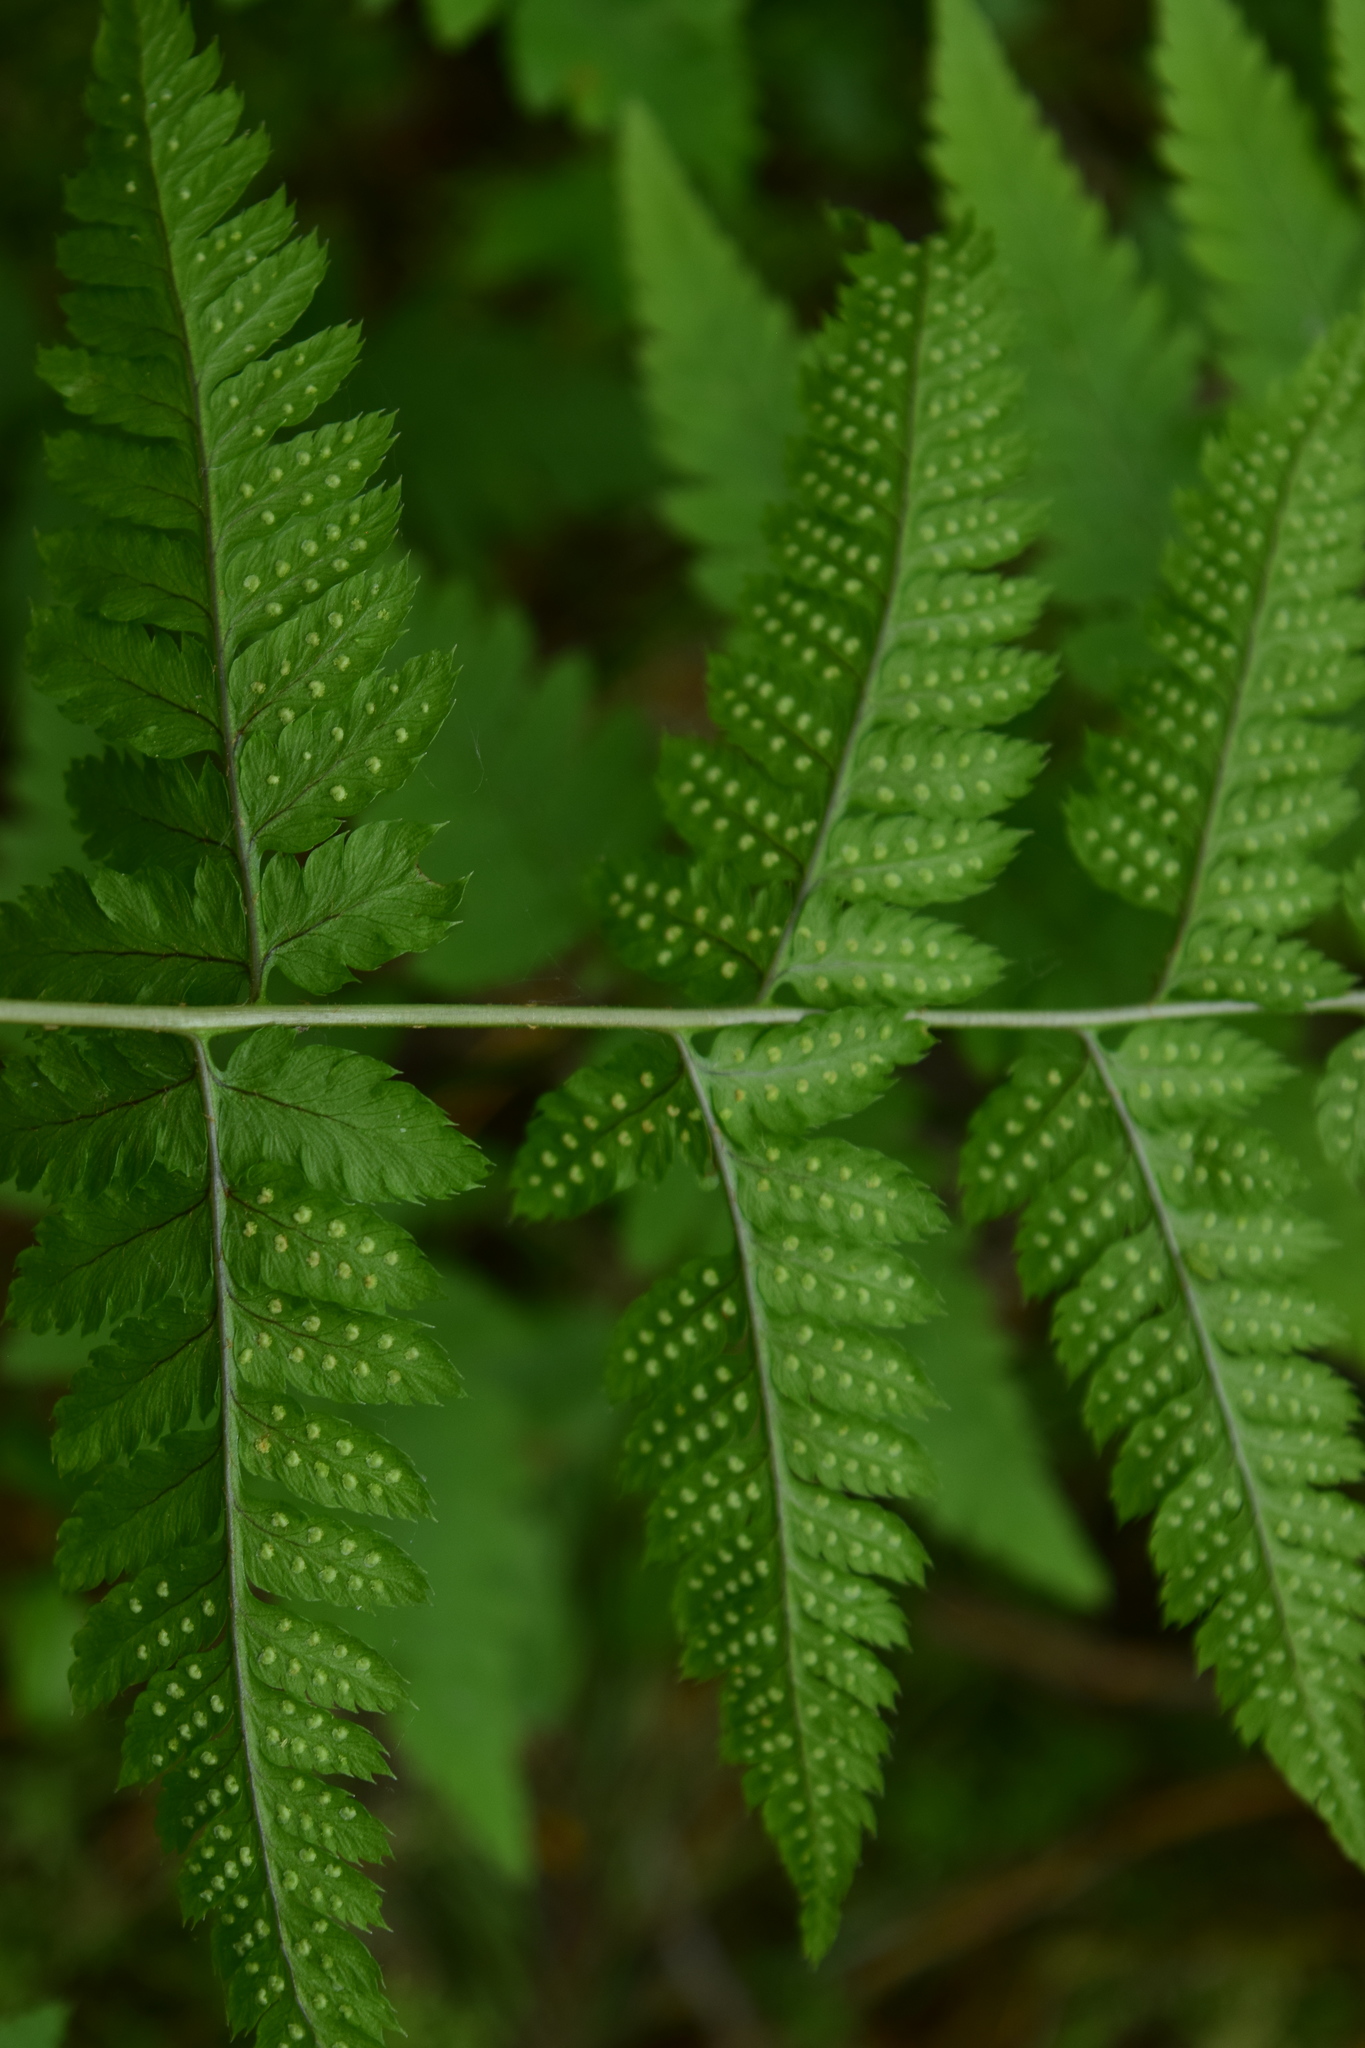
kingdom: Plantae
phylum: Tracheophyta
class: Polypodiopsida
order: Polypodiales
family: Dryopteridaceae
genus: Dryopteris
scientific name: Dryopteris carthusiana
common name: Narrow buckler-fern
